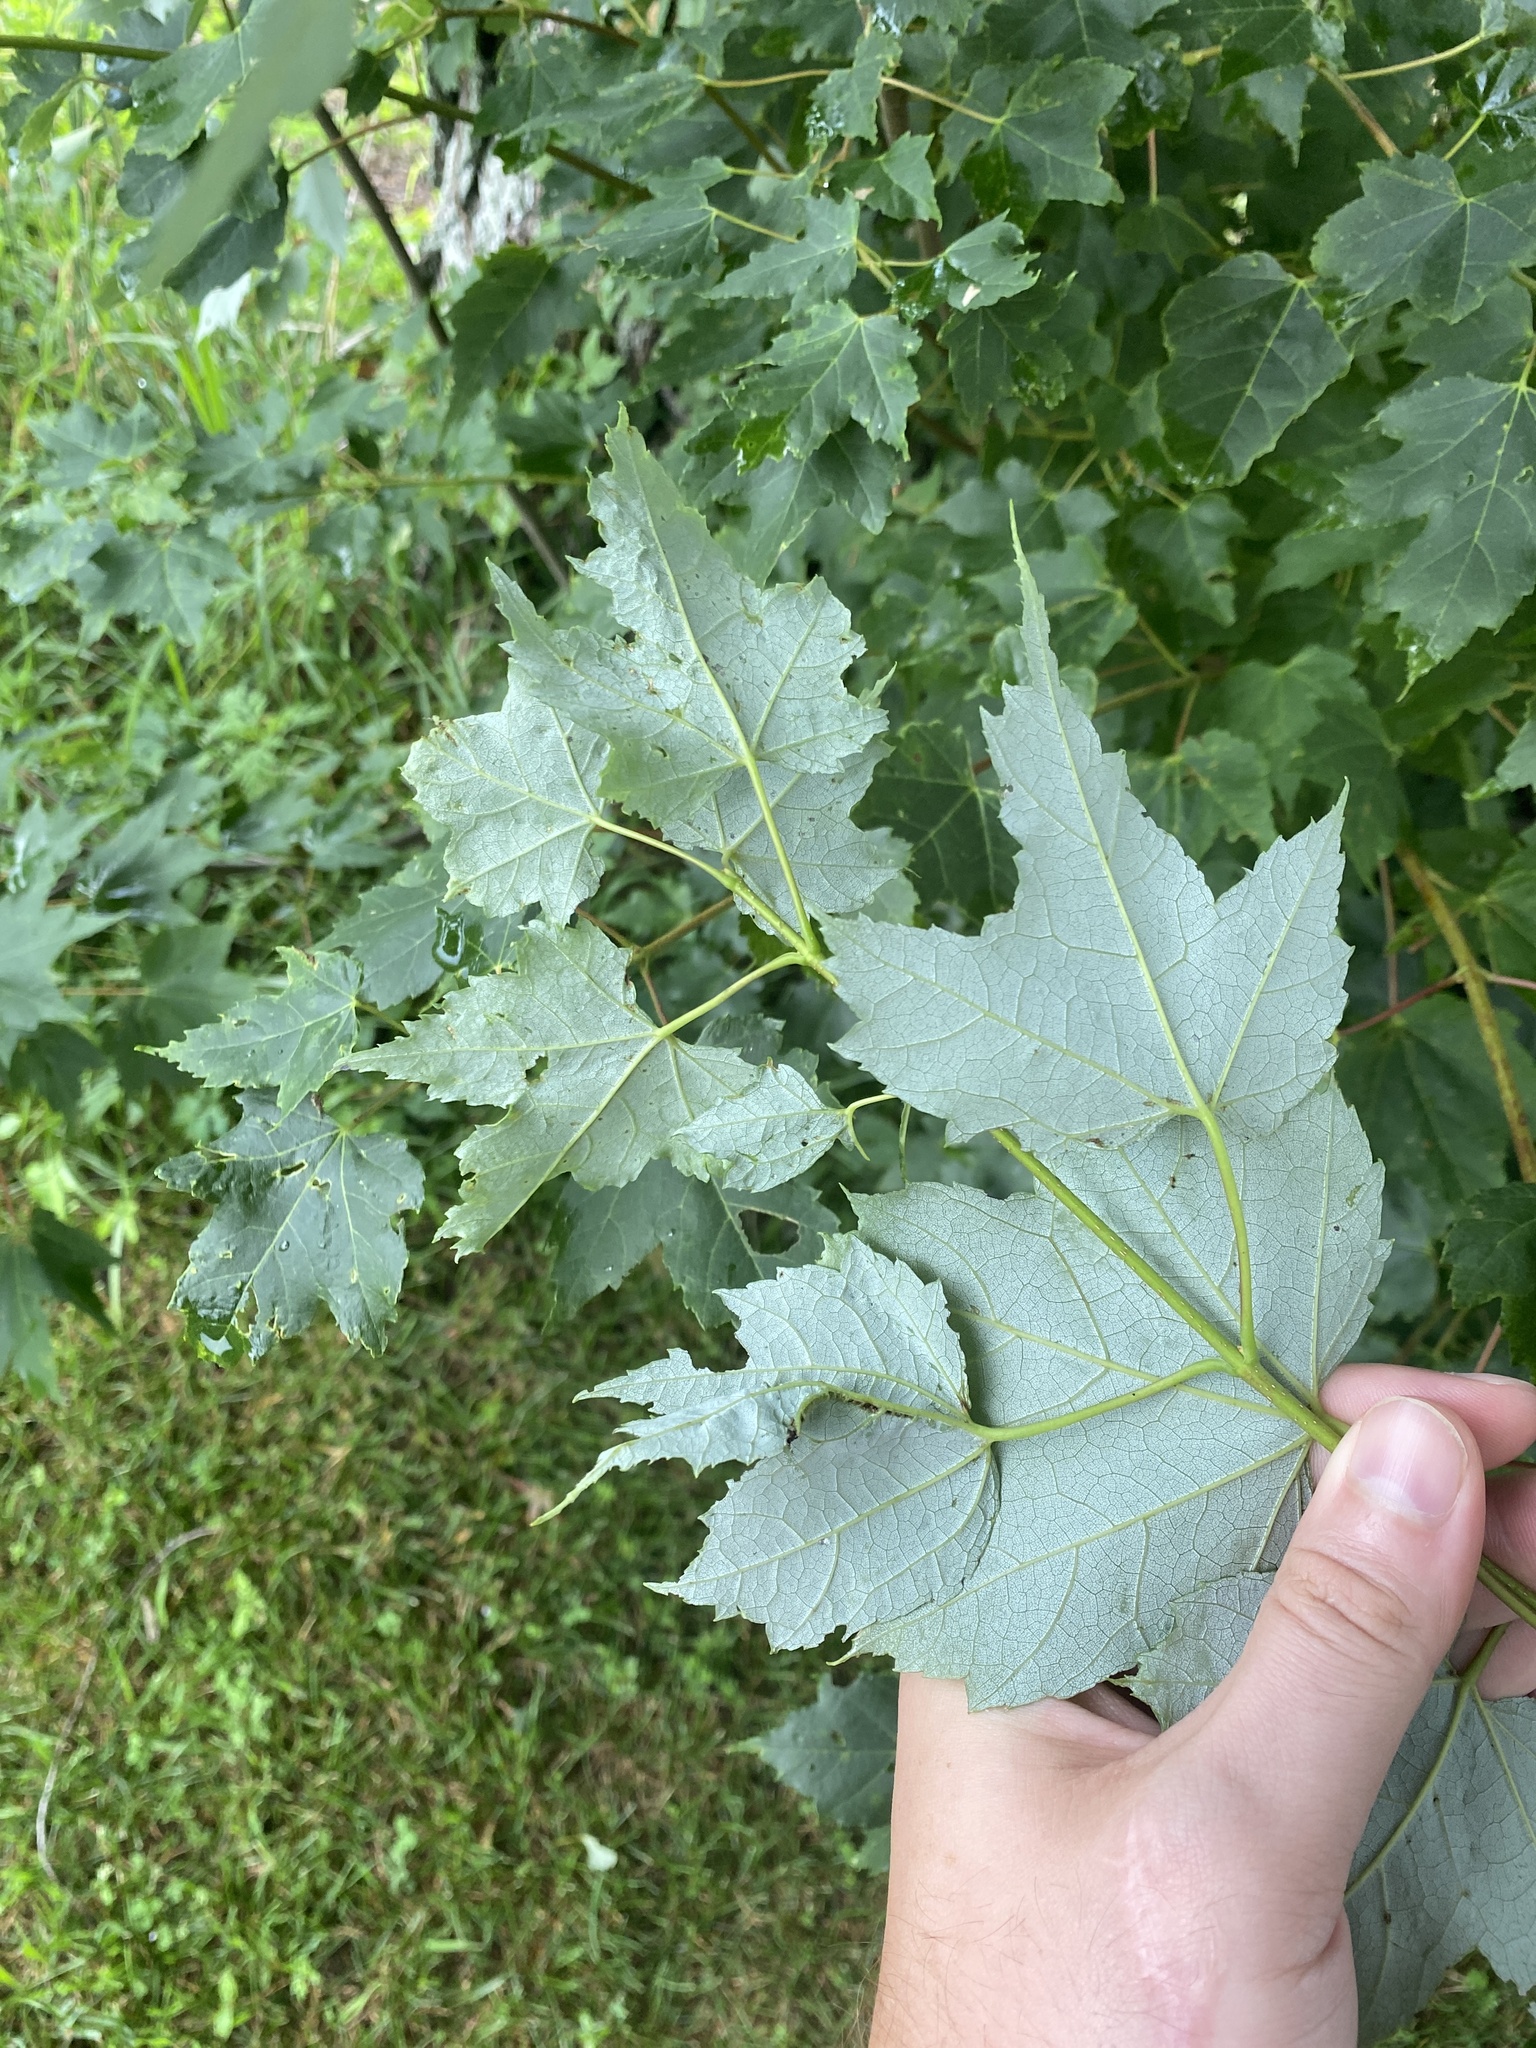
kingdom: Plantae
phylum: Tracheophyta
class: Magnoliopsida
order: Sapindales
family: Sapindaceae
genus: Acer
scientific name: Acer rubrum
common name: Red maple
